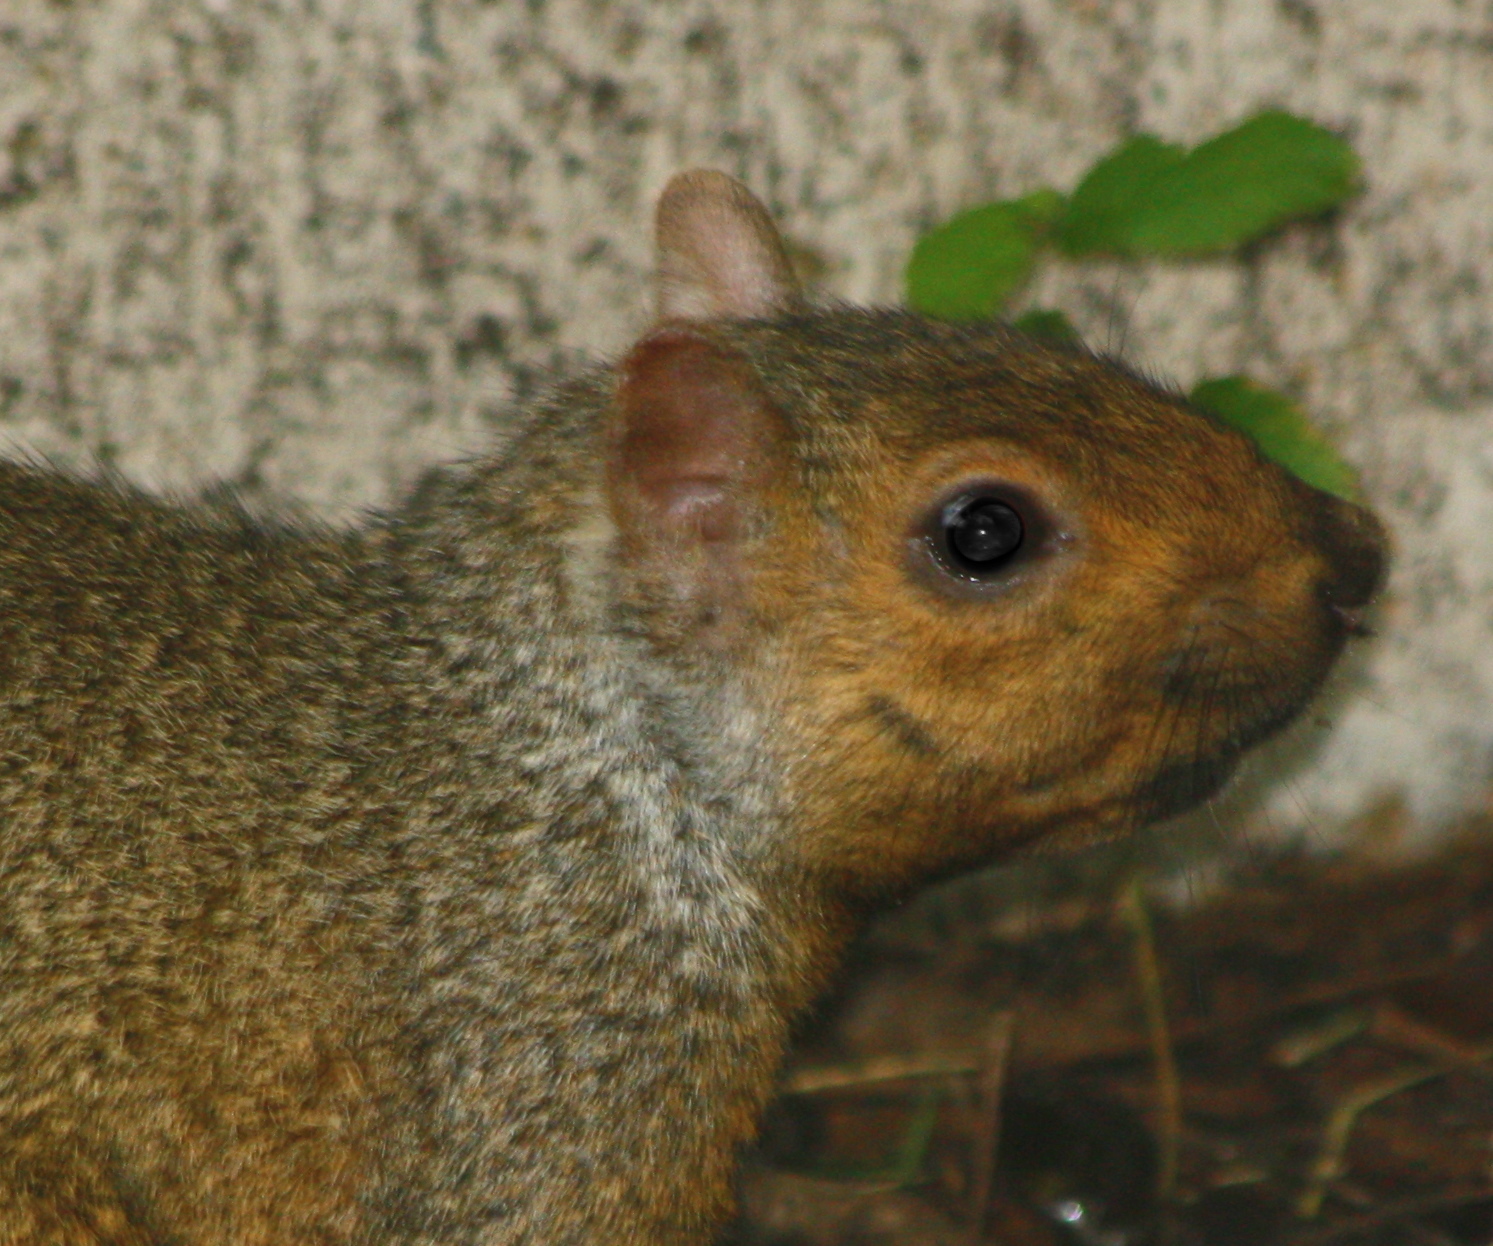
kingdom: Animalia
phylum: Chordata
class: Mammalia
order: Rodentia
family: Sciuridae
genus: Sciurus
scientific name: Sciurus carolinensis
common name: Eastern gray squirrel
